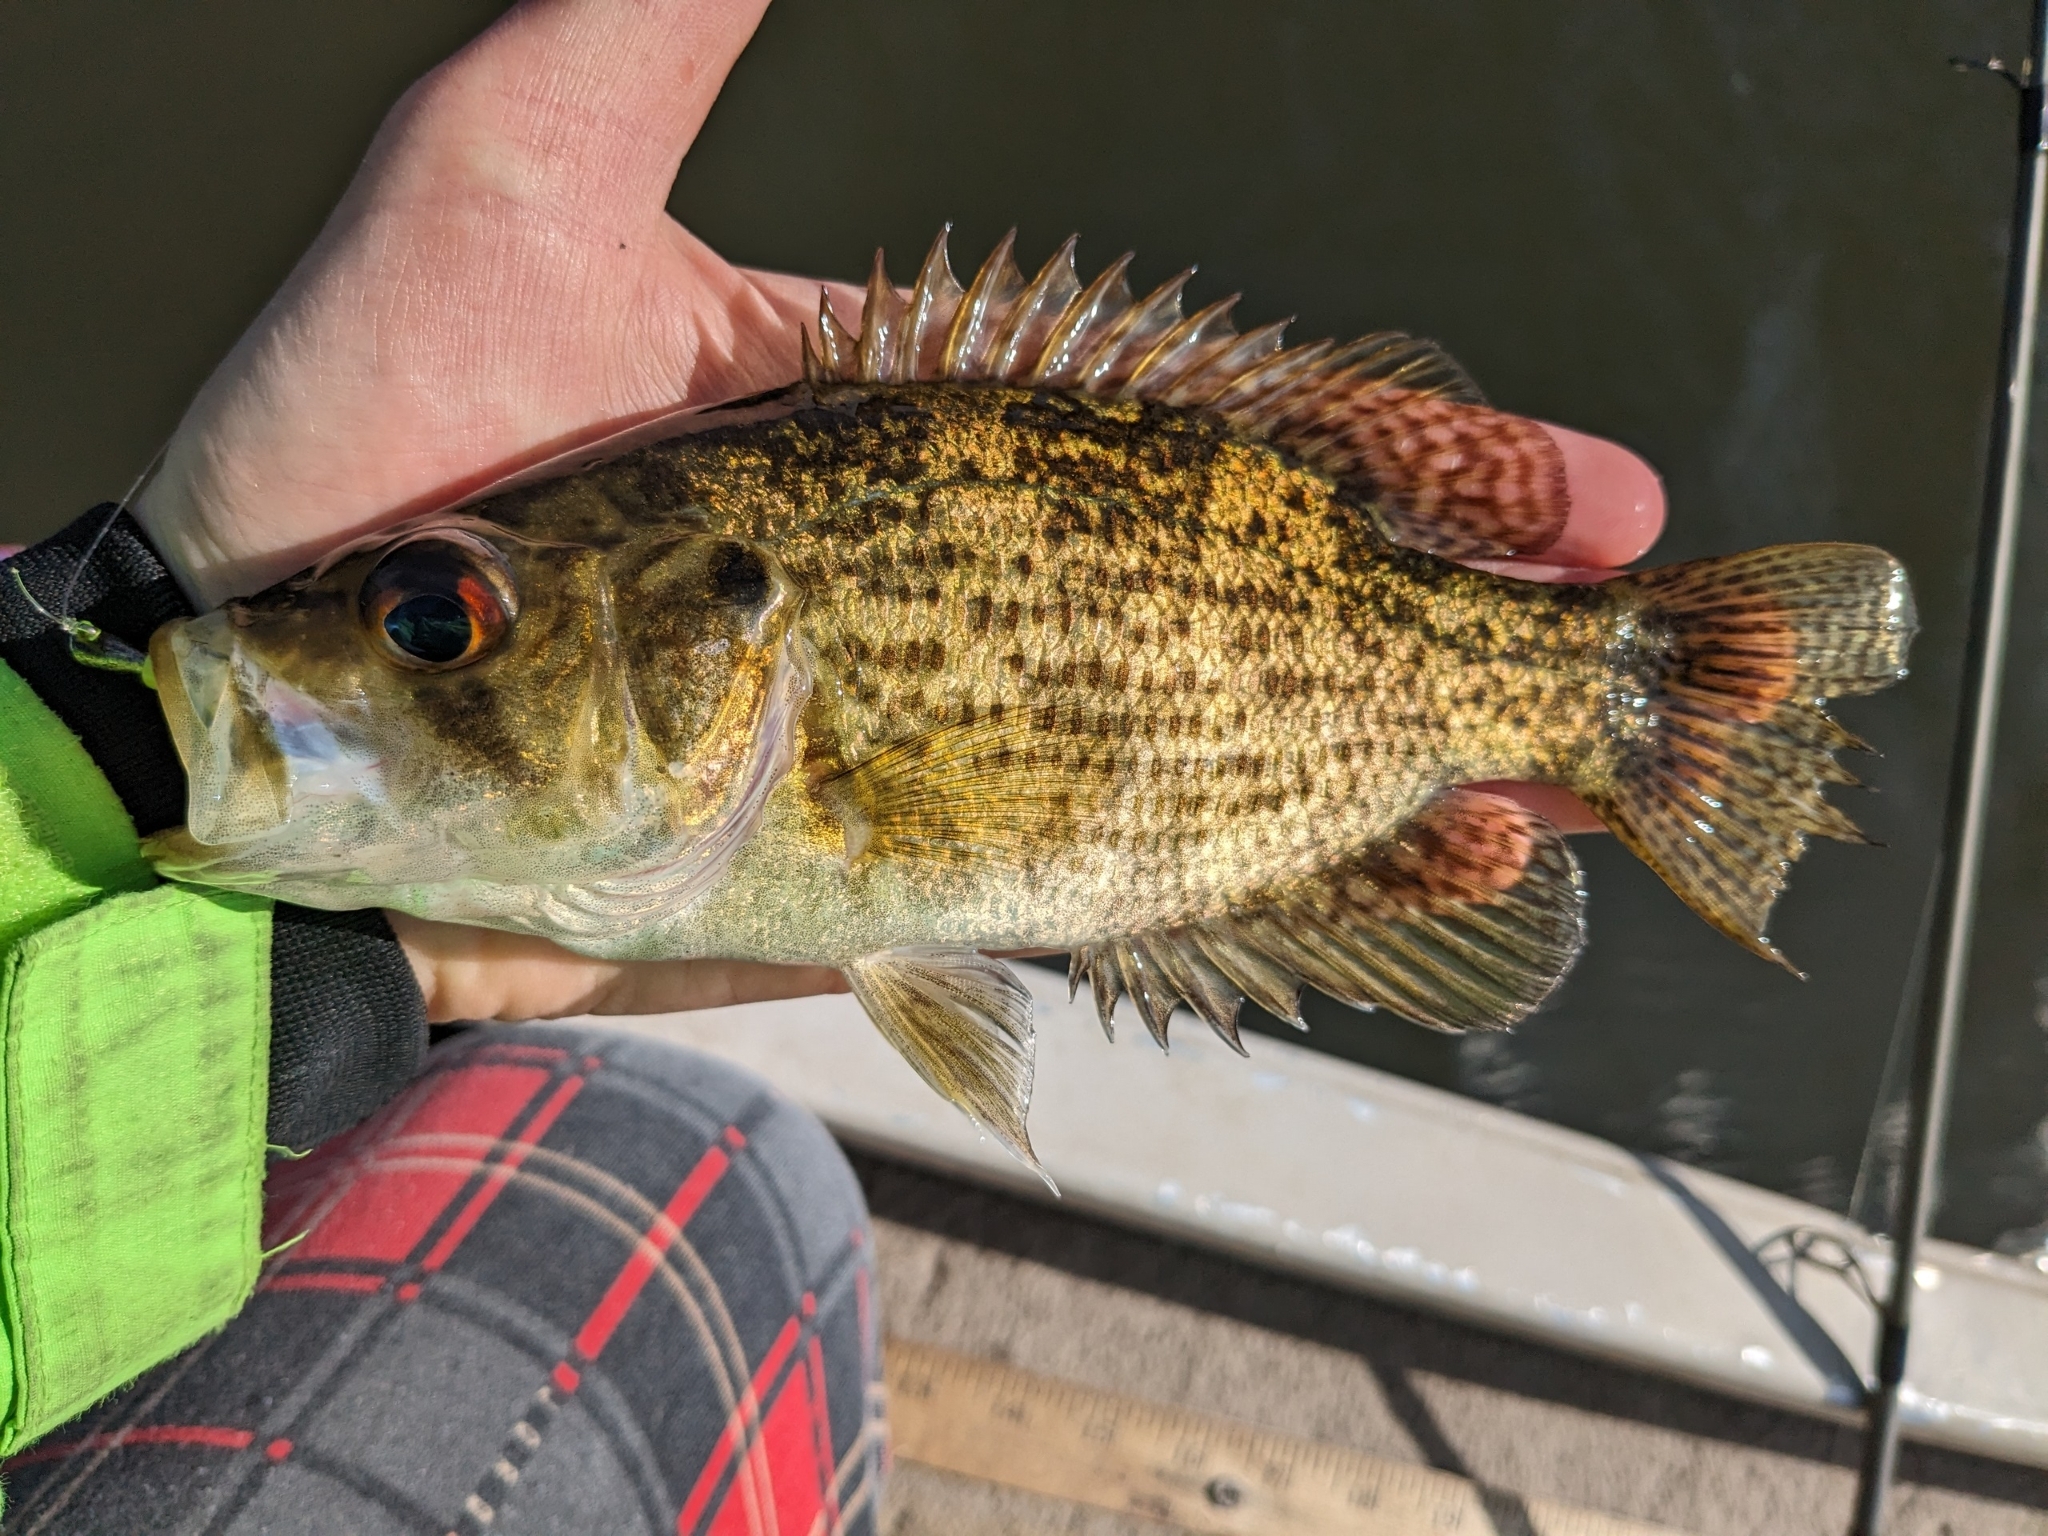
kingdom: Animalia
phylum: Chordata
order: Perciformes
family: Centrarchidae
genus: Ambloplites
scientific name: Ambloplites rupestris
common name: Rock bass
